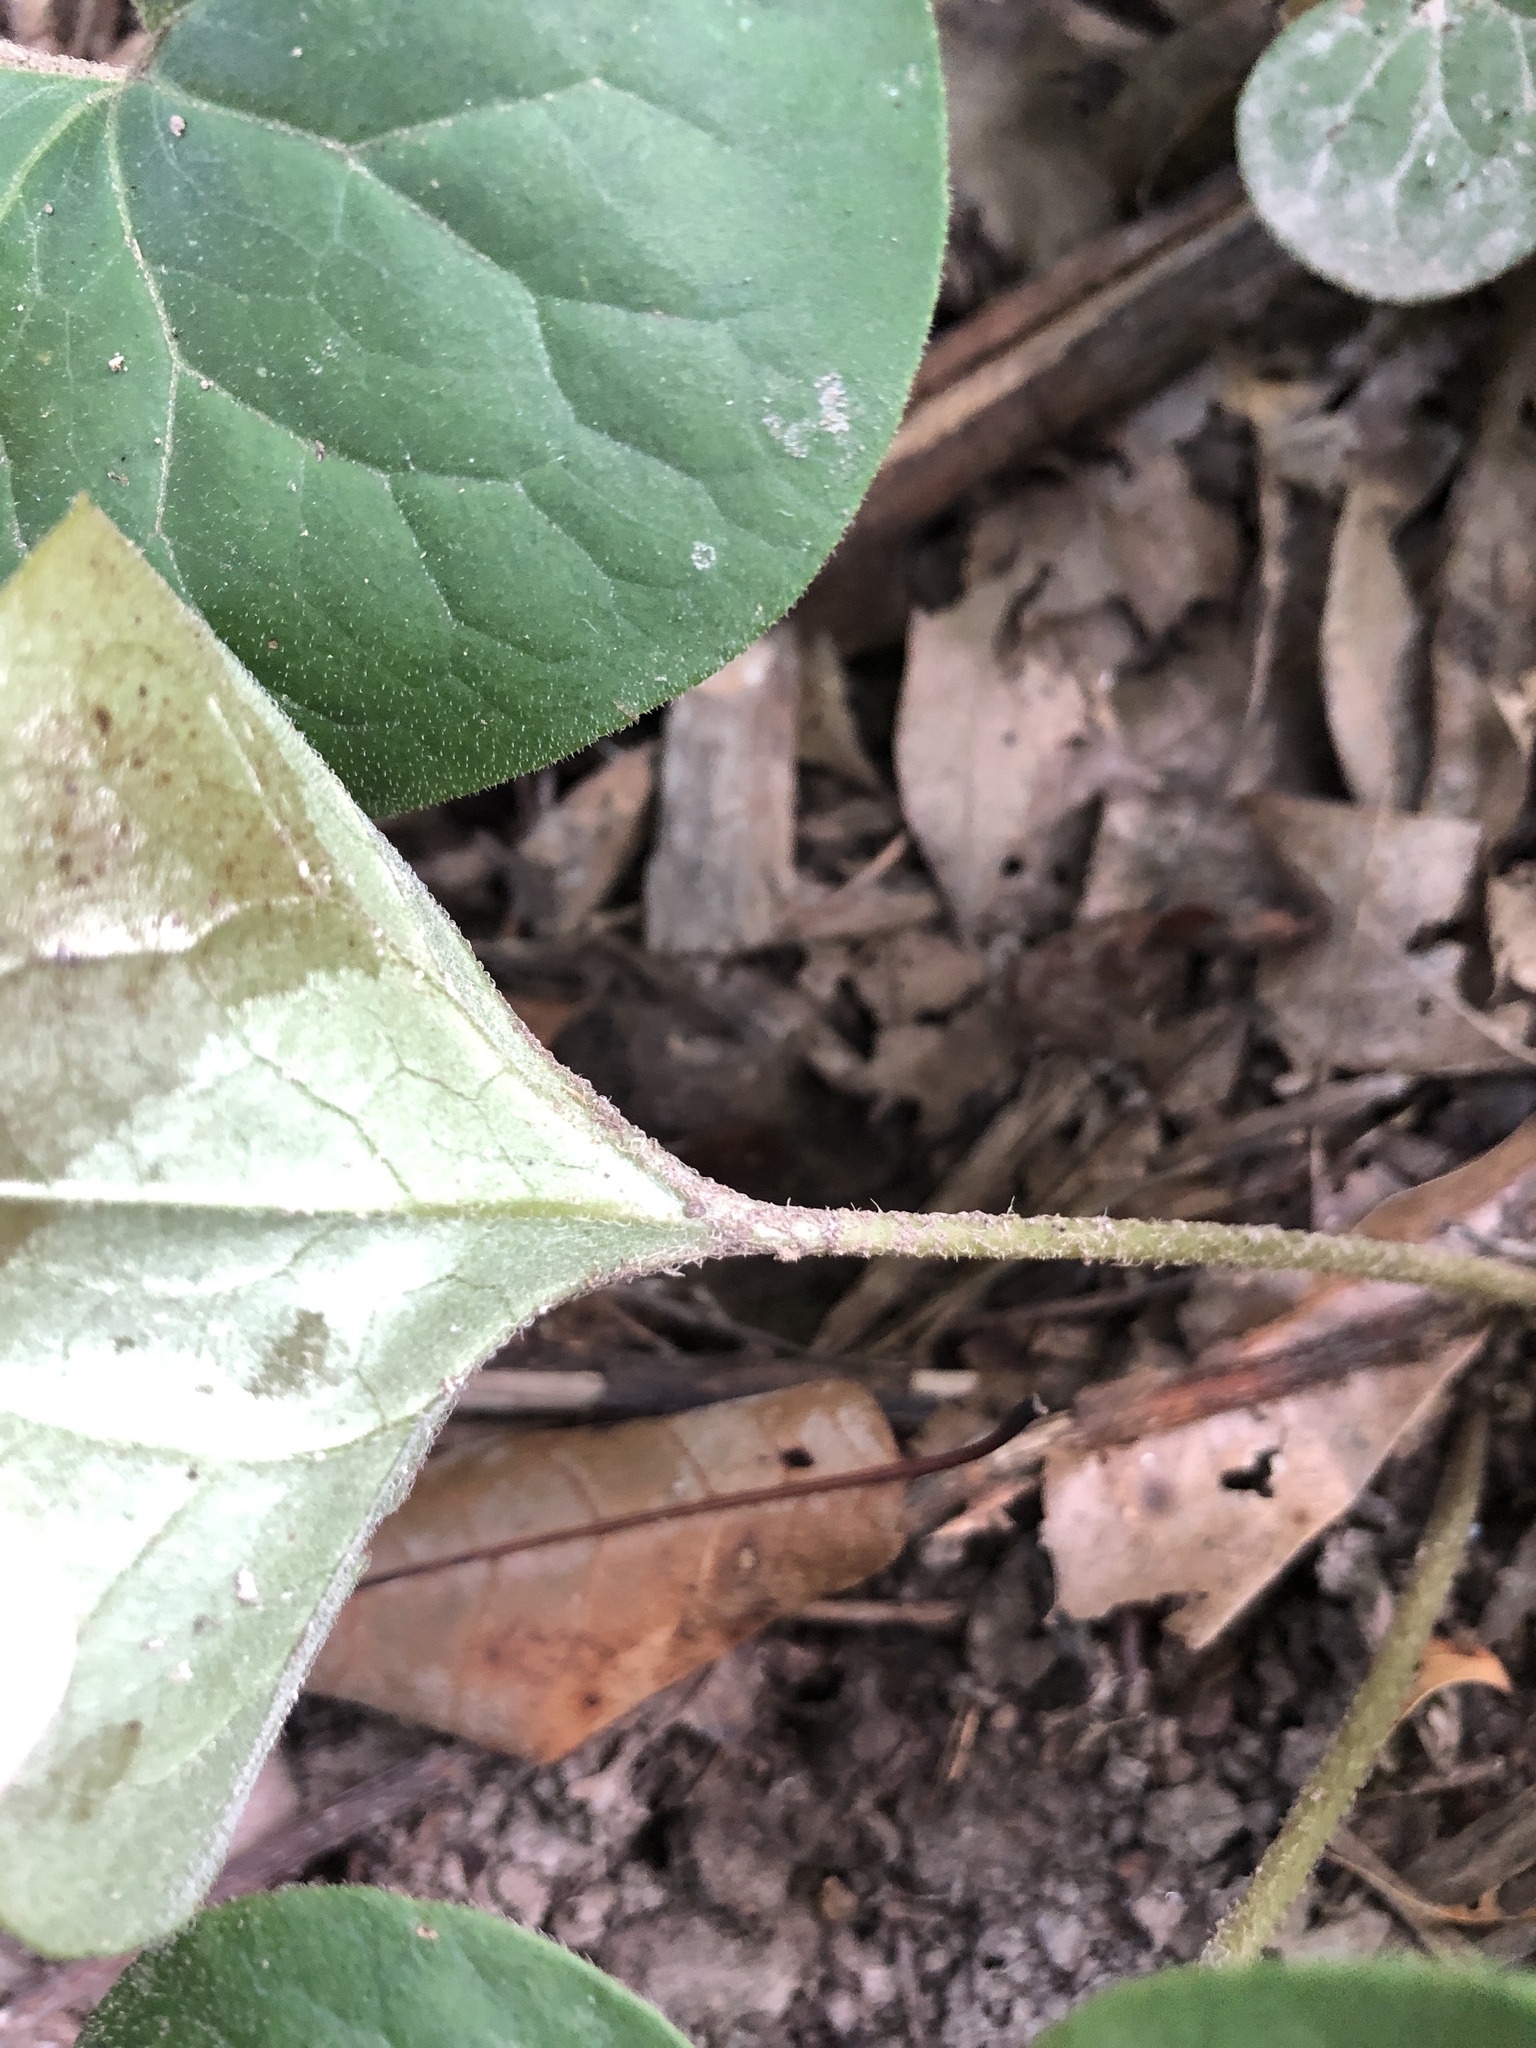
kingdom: Plantae
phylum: Tracheophyta
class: Magnoliopsida
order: Piperales
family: Aristolochiaceae
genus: Asarum
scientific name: Asarum canadense
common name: Wild ginger
